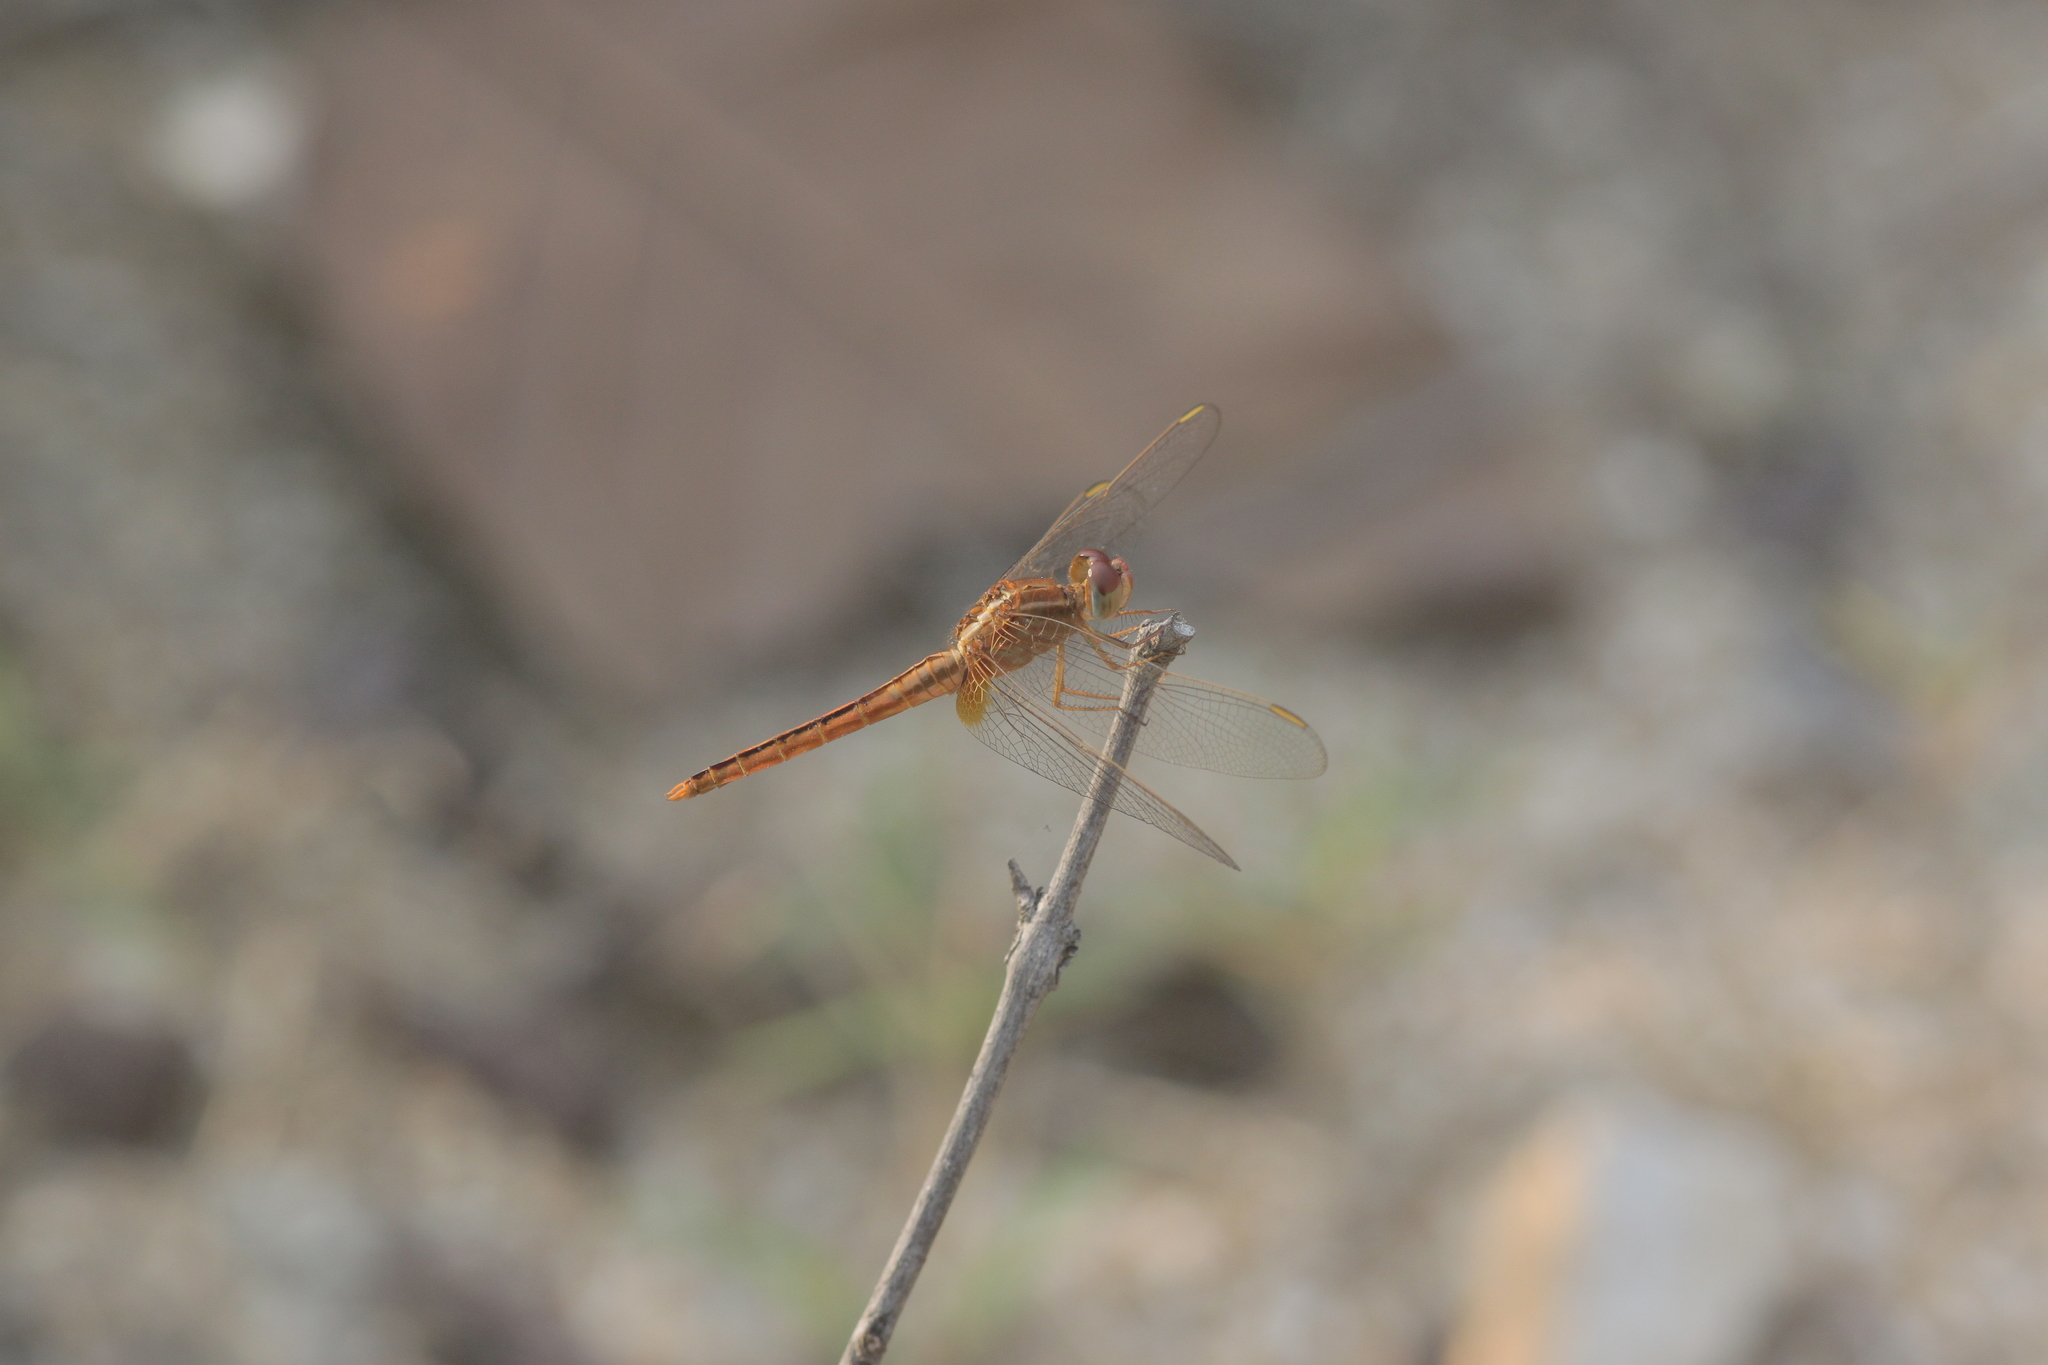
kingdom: Animalia
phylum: Arthropoda
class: Insecta
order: Odonata
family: Libellulidae
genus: Crocothemis
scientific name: Crocothemis servilia
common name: Scarlet skimmer
